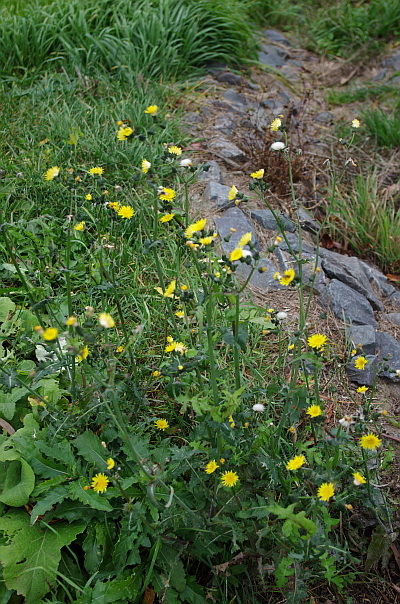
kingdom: Plantae
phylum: Tracheophyta
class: Magnoliopsida
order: Asterales
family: Asteraceae
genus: Sonchus
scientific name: Sonchus oleraceus
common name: Common sowthistle
